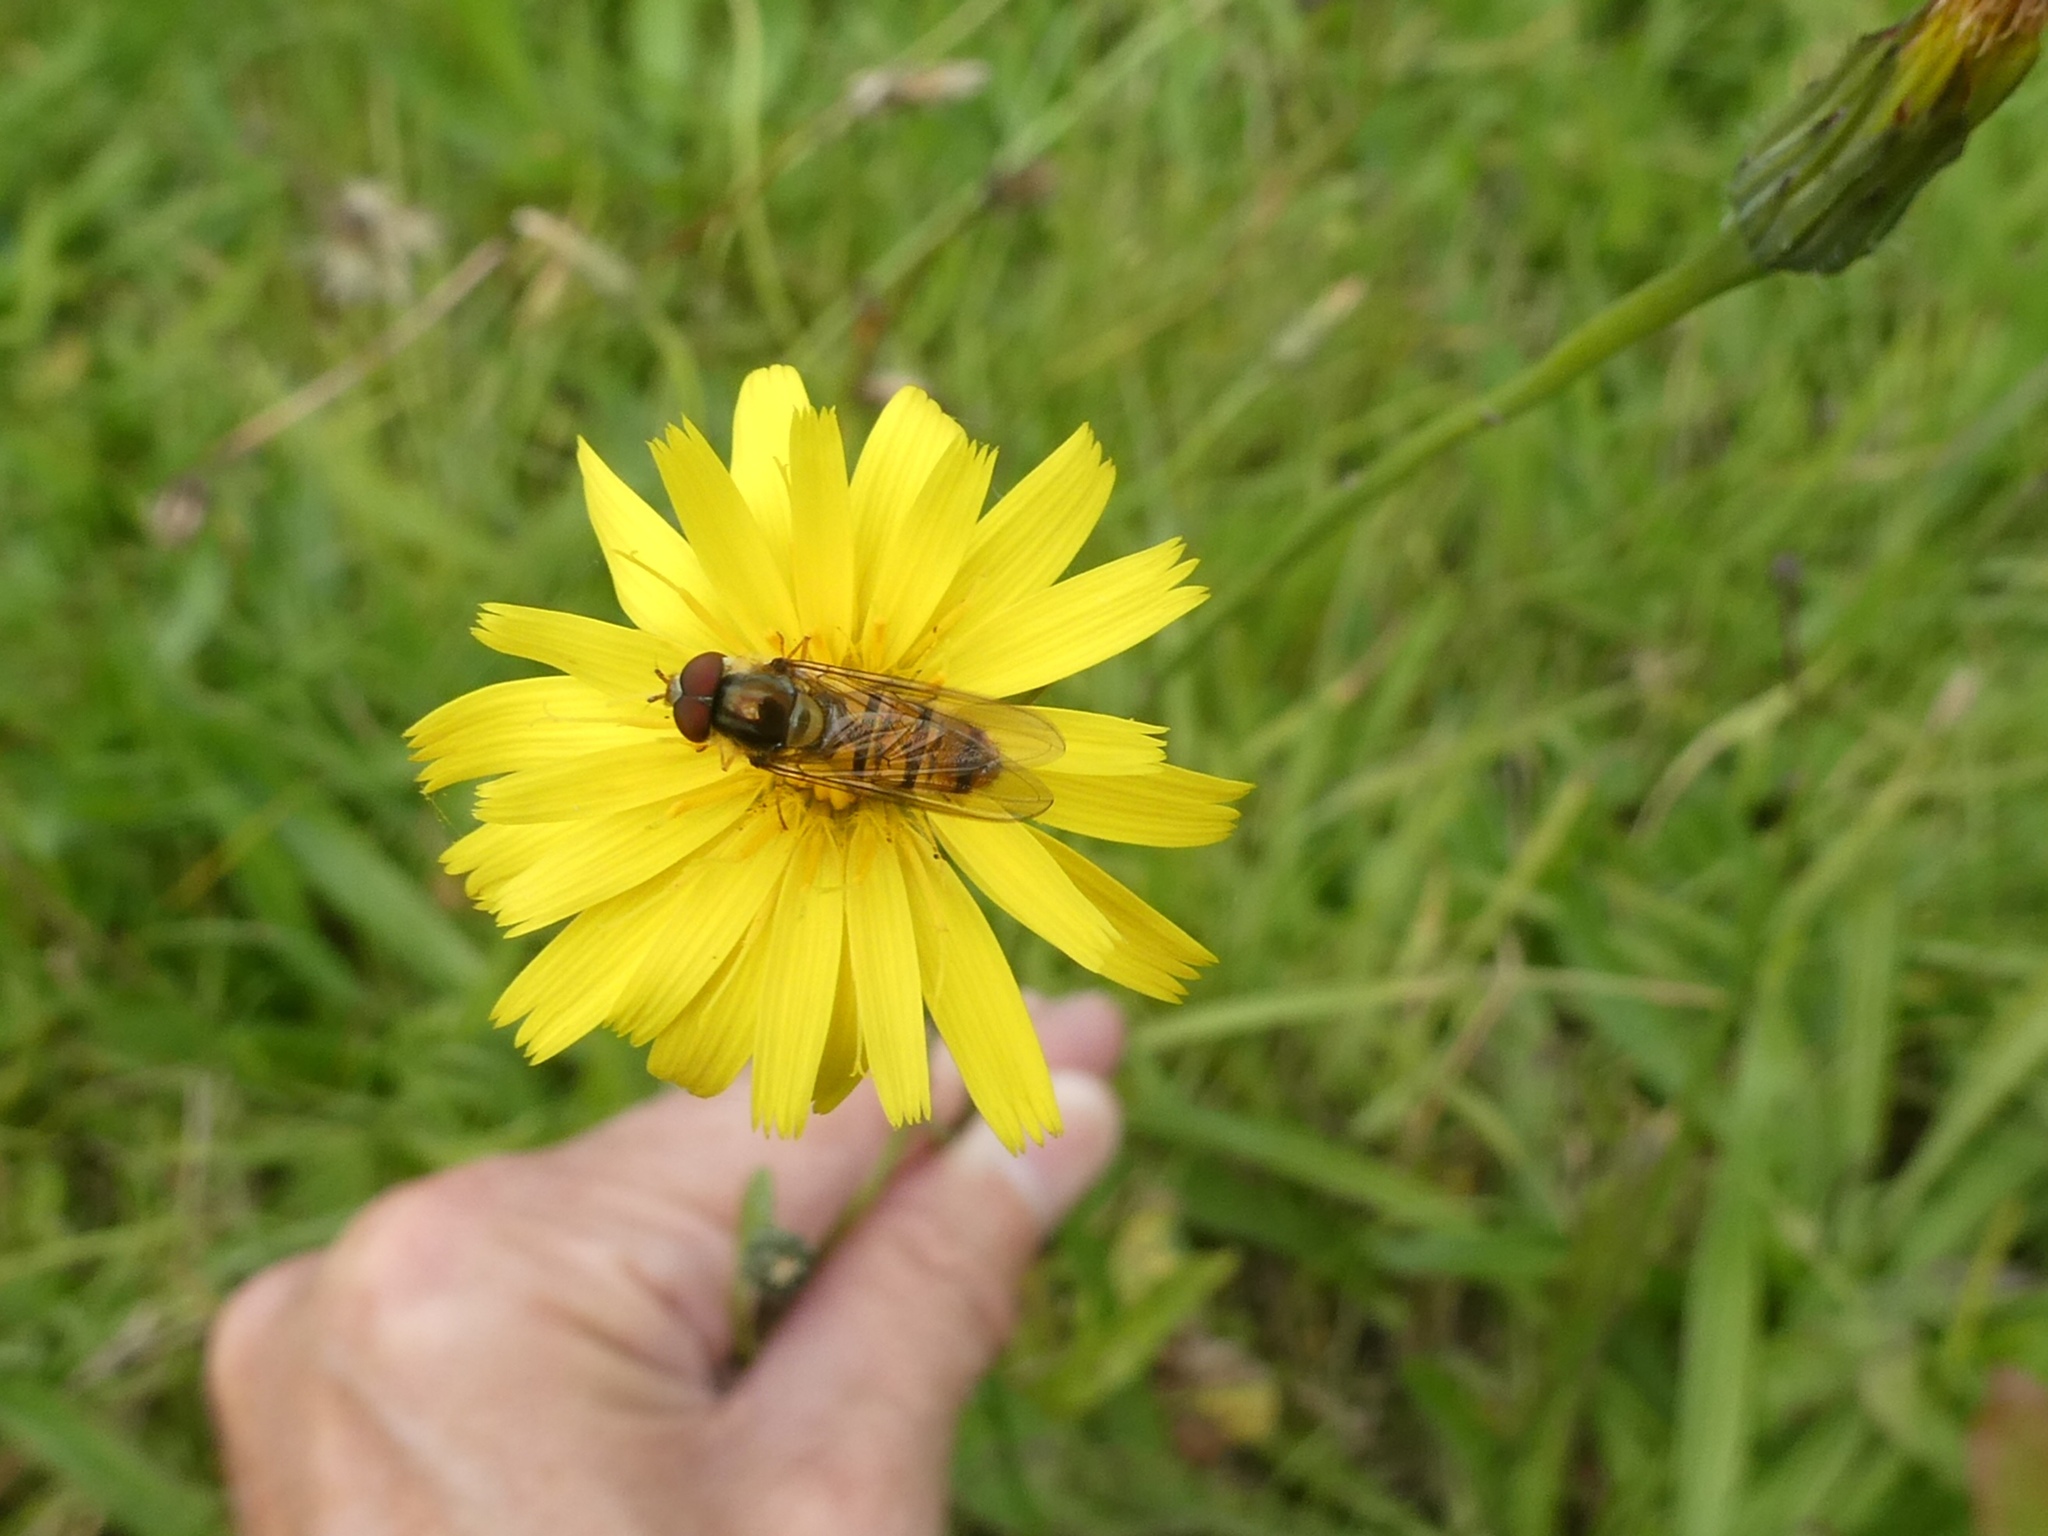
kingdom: Animalia
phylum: Arthropoda
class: Insecta
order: Diptera
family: Syrphidae
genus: Episyrphus
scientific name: Episyrphus balteatus
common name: Marmalade hoverfly
